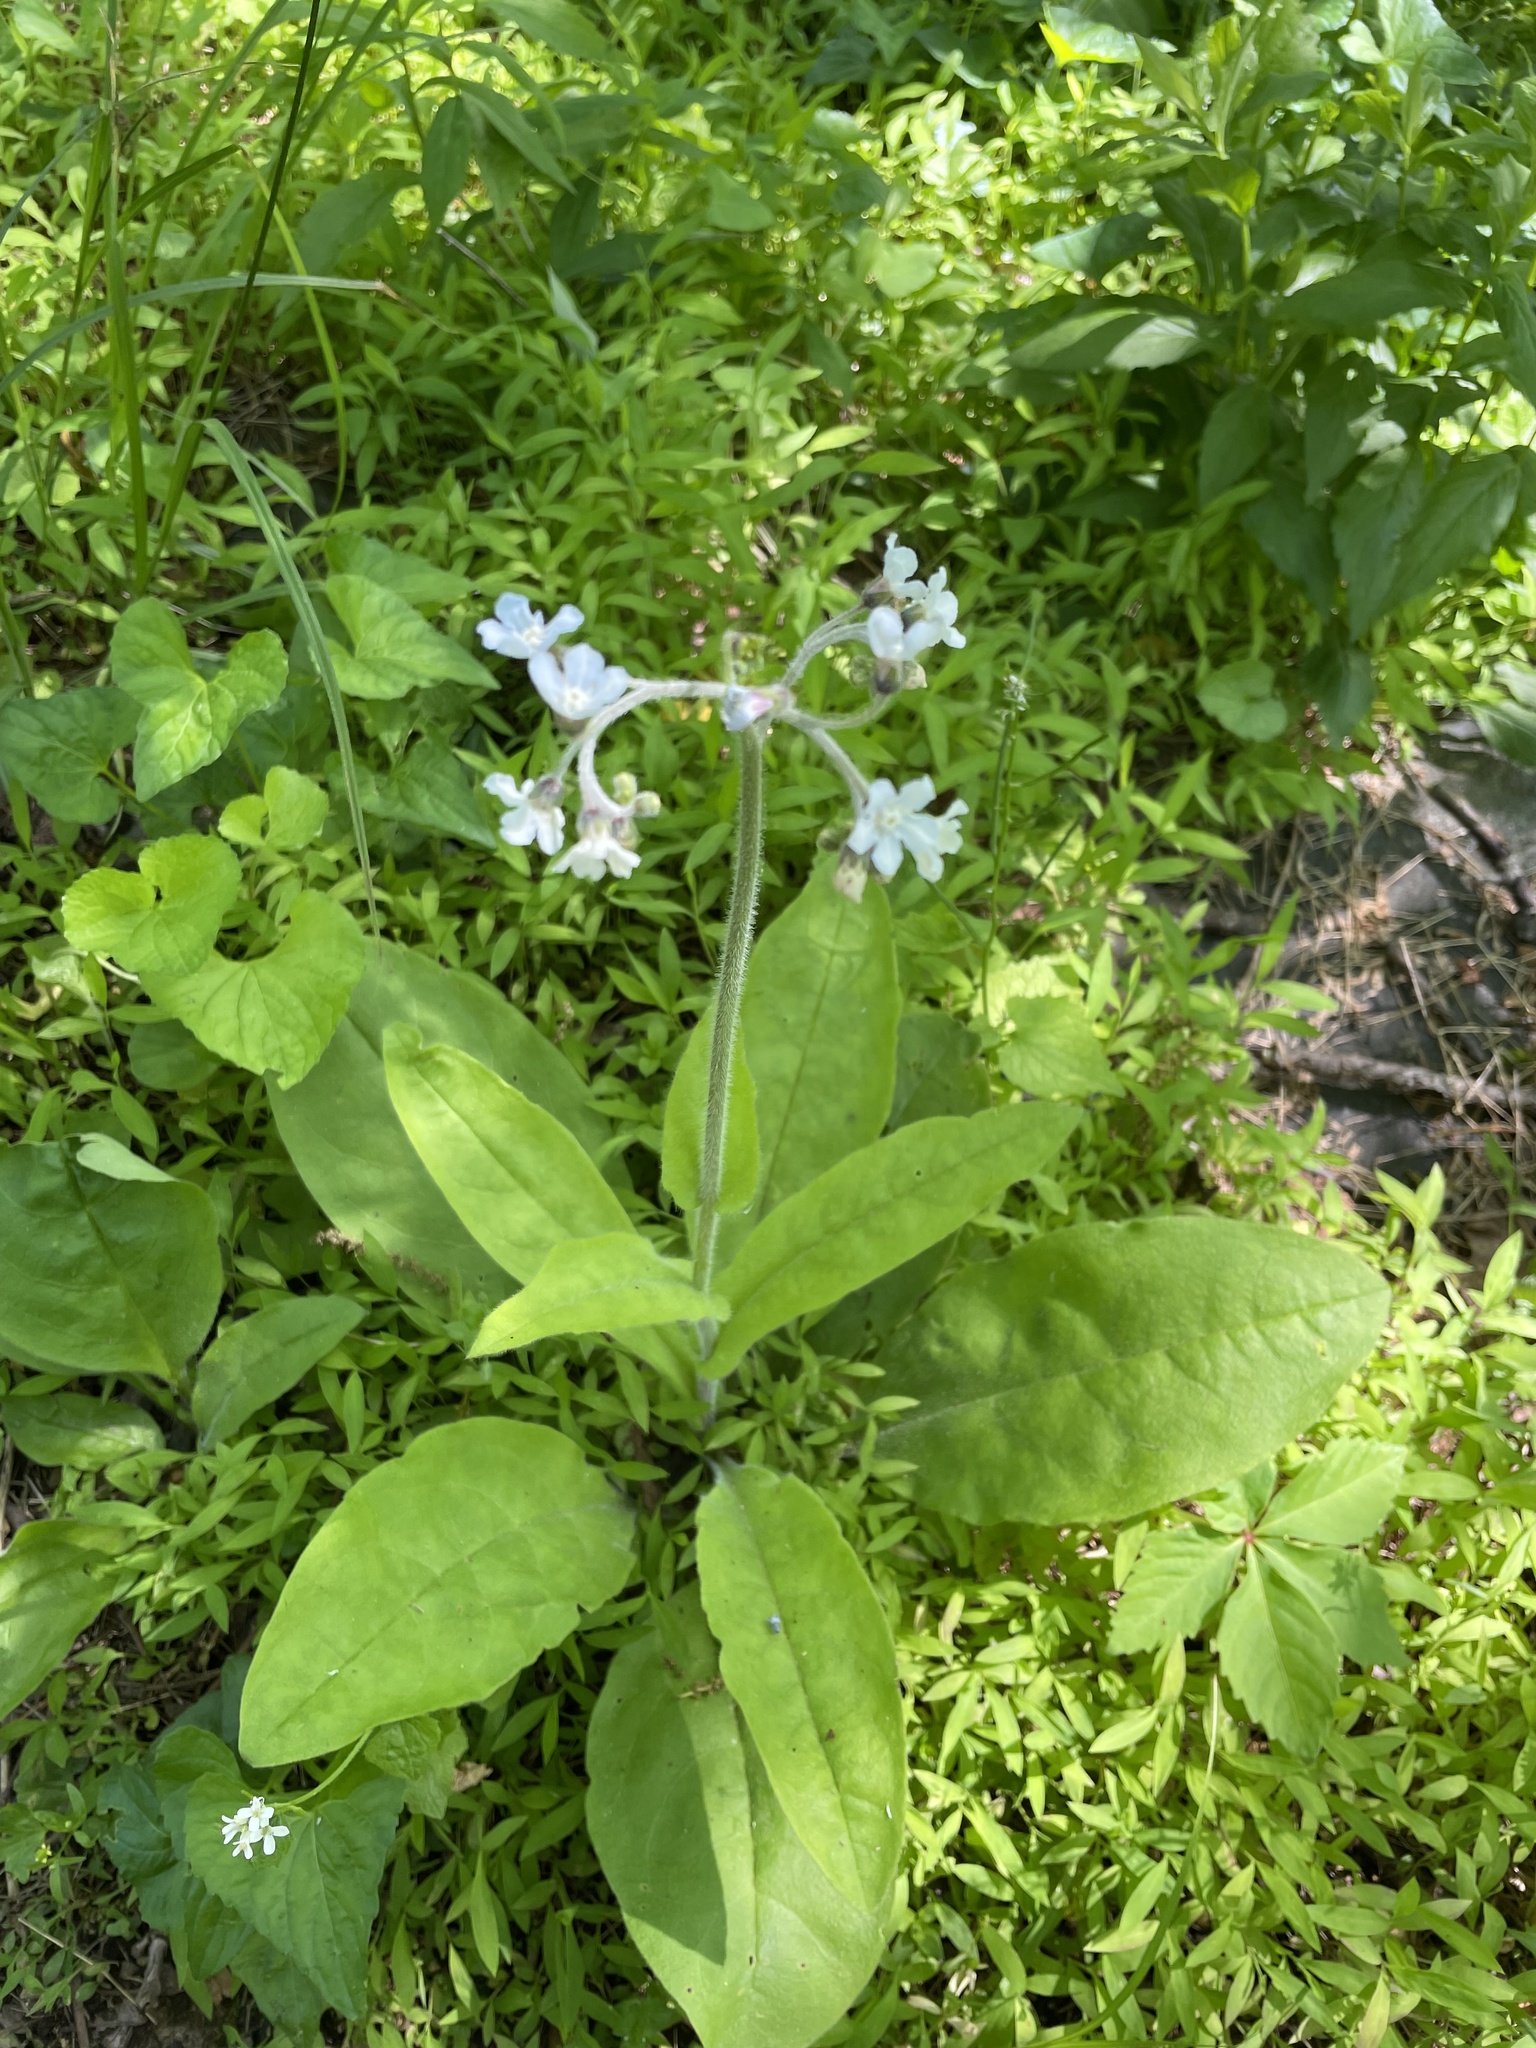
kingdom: Plantae
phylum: Tracheophyta
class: Magnoliopsida
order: Boraginales
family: Boraginaceae
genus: Andersonglossum
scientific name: Andersonglossum virginianum
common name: Wild comfrey
